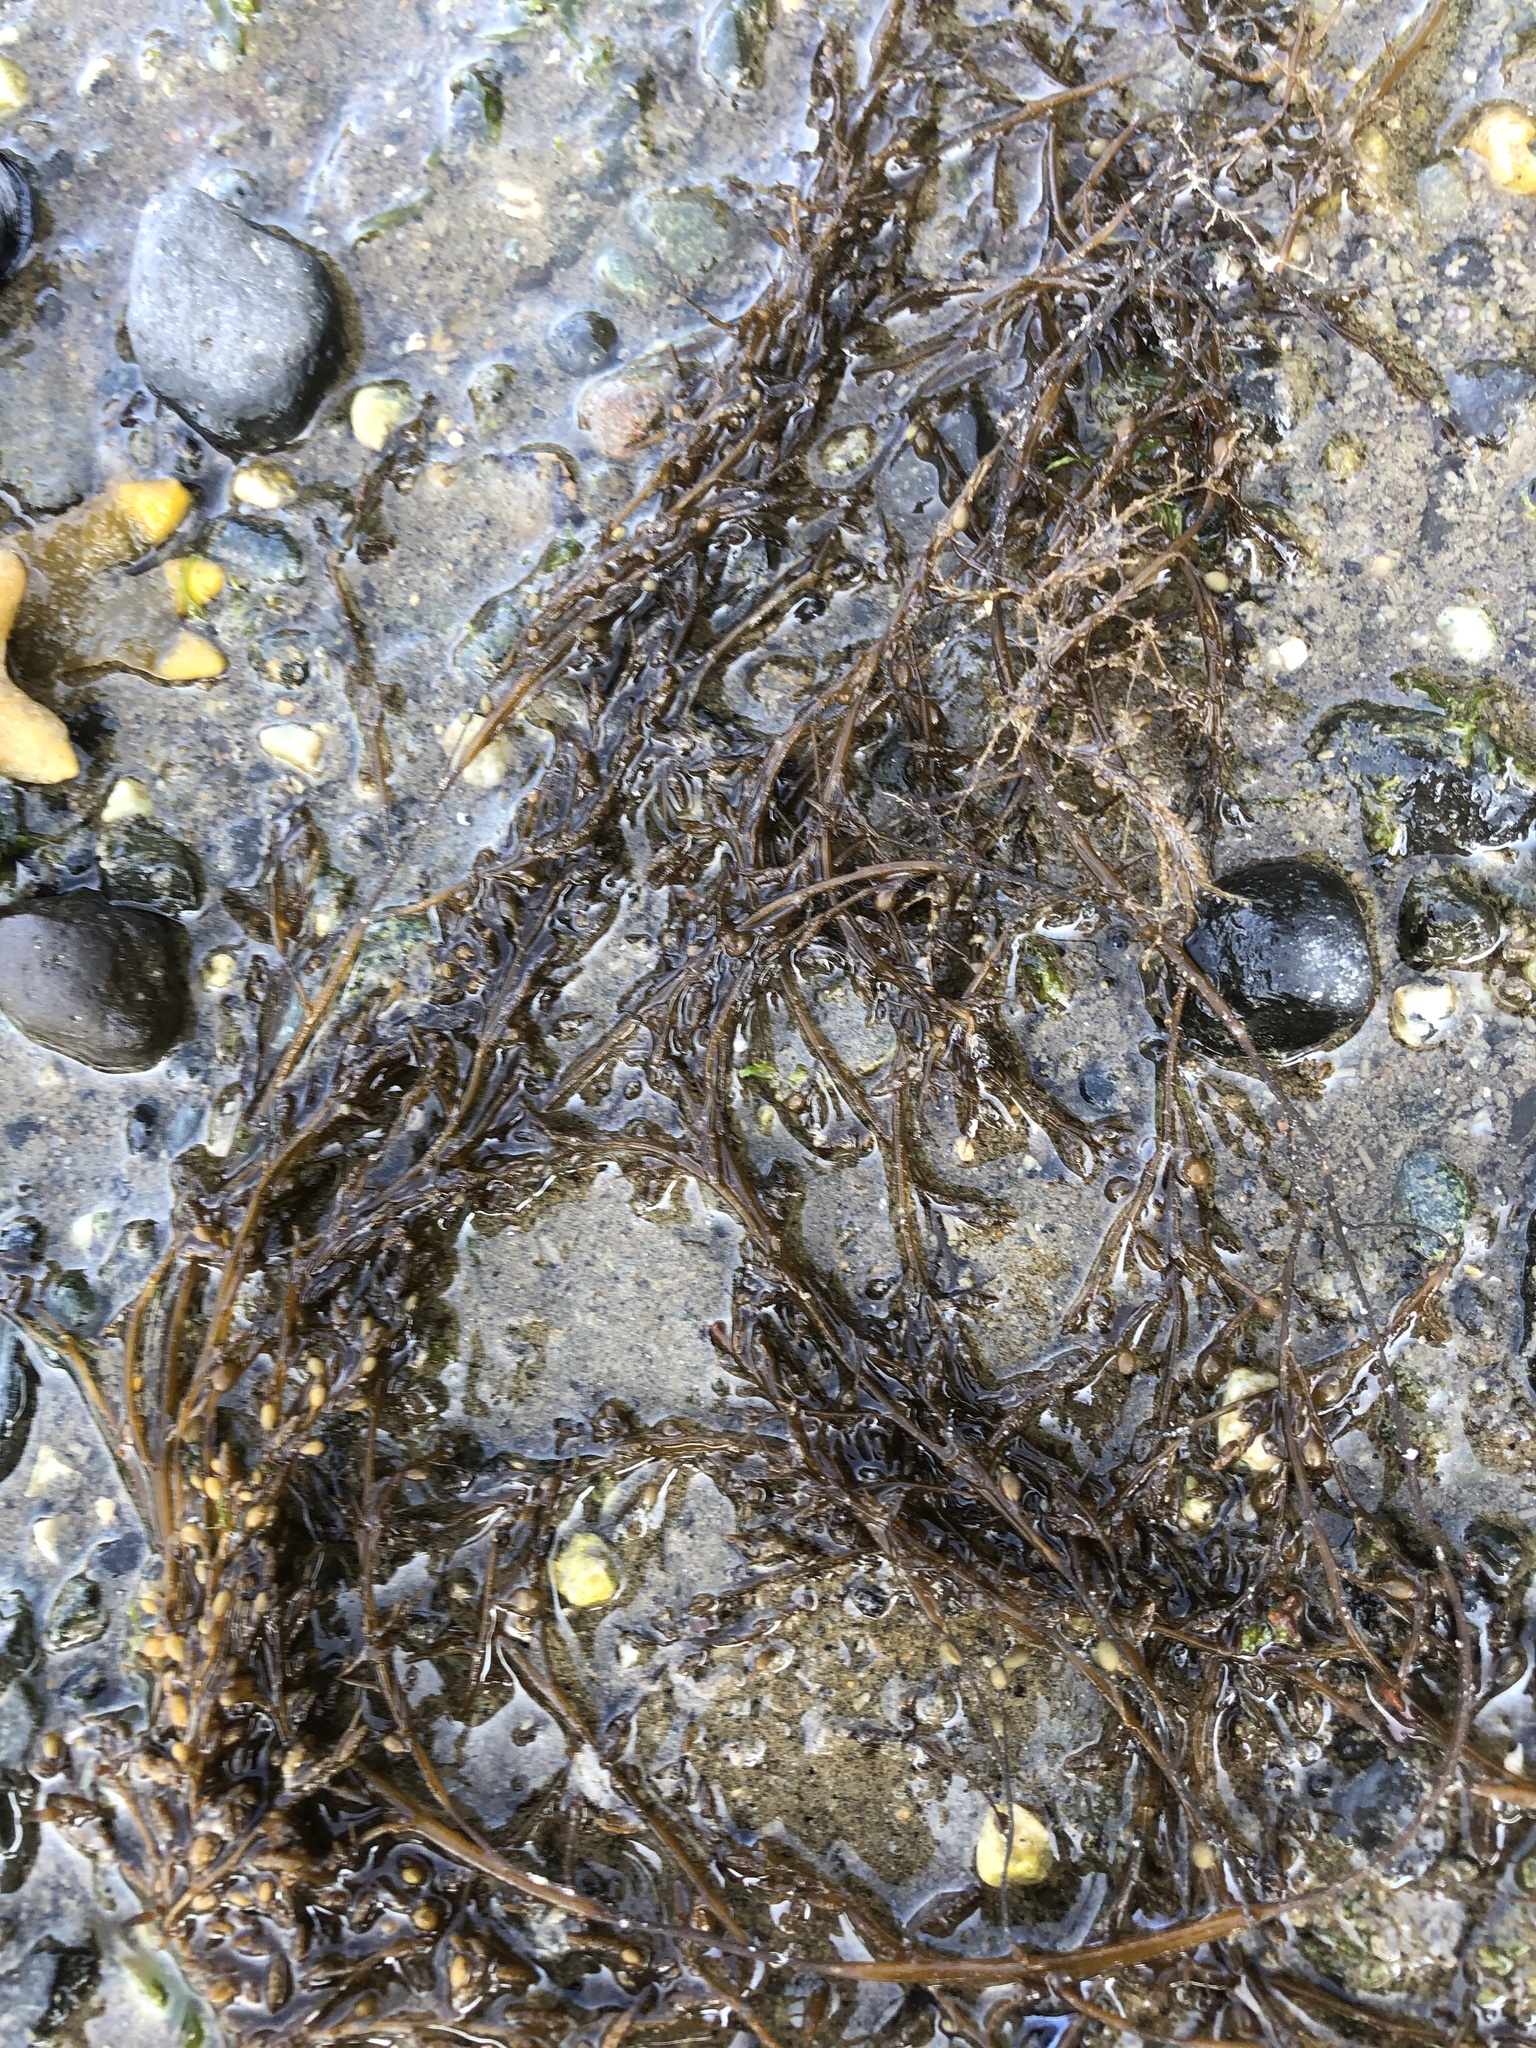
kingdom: Chromista
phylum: Ochrophyta
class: Phaeophyceae
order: Fucales
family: Sargassaceae
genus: Sargassum
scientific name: Sargassum muticum
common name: Japweed
